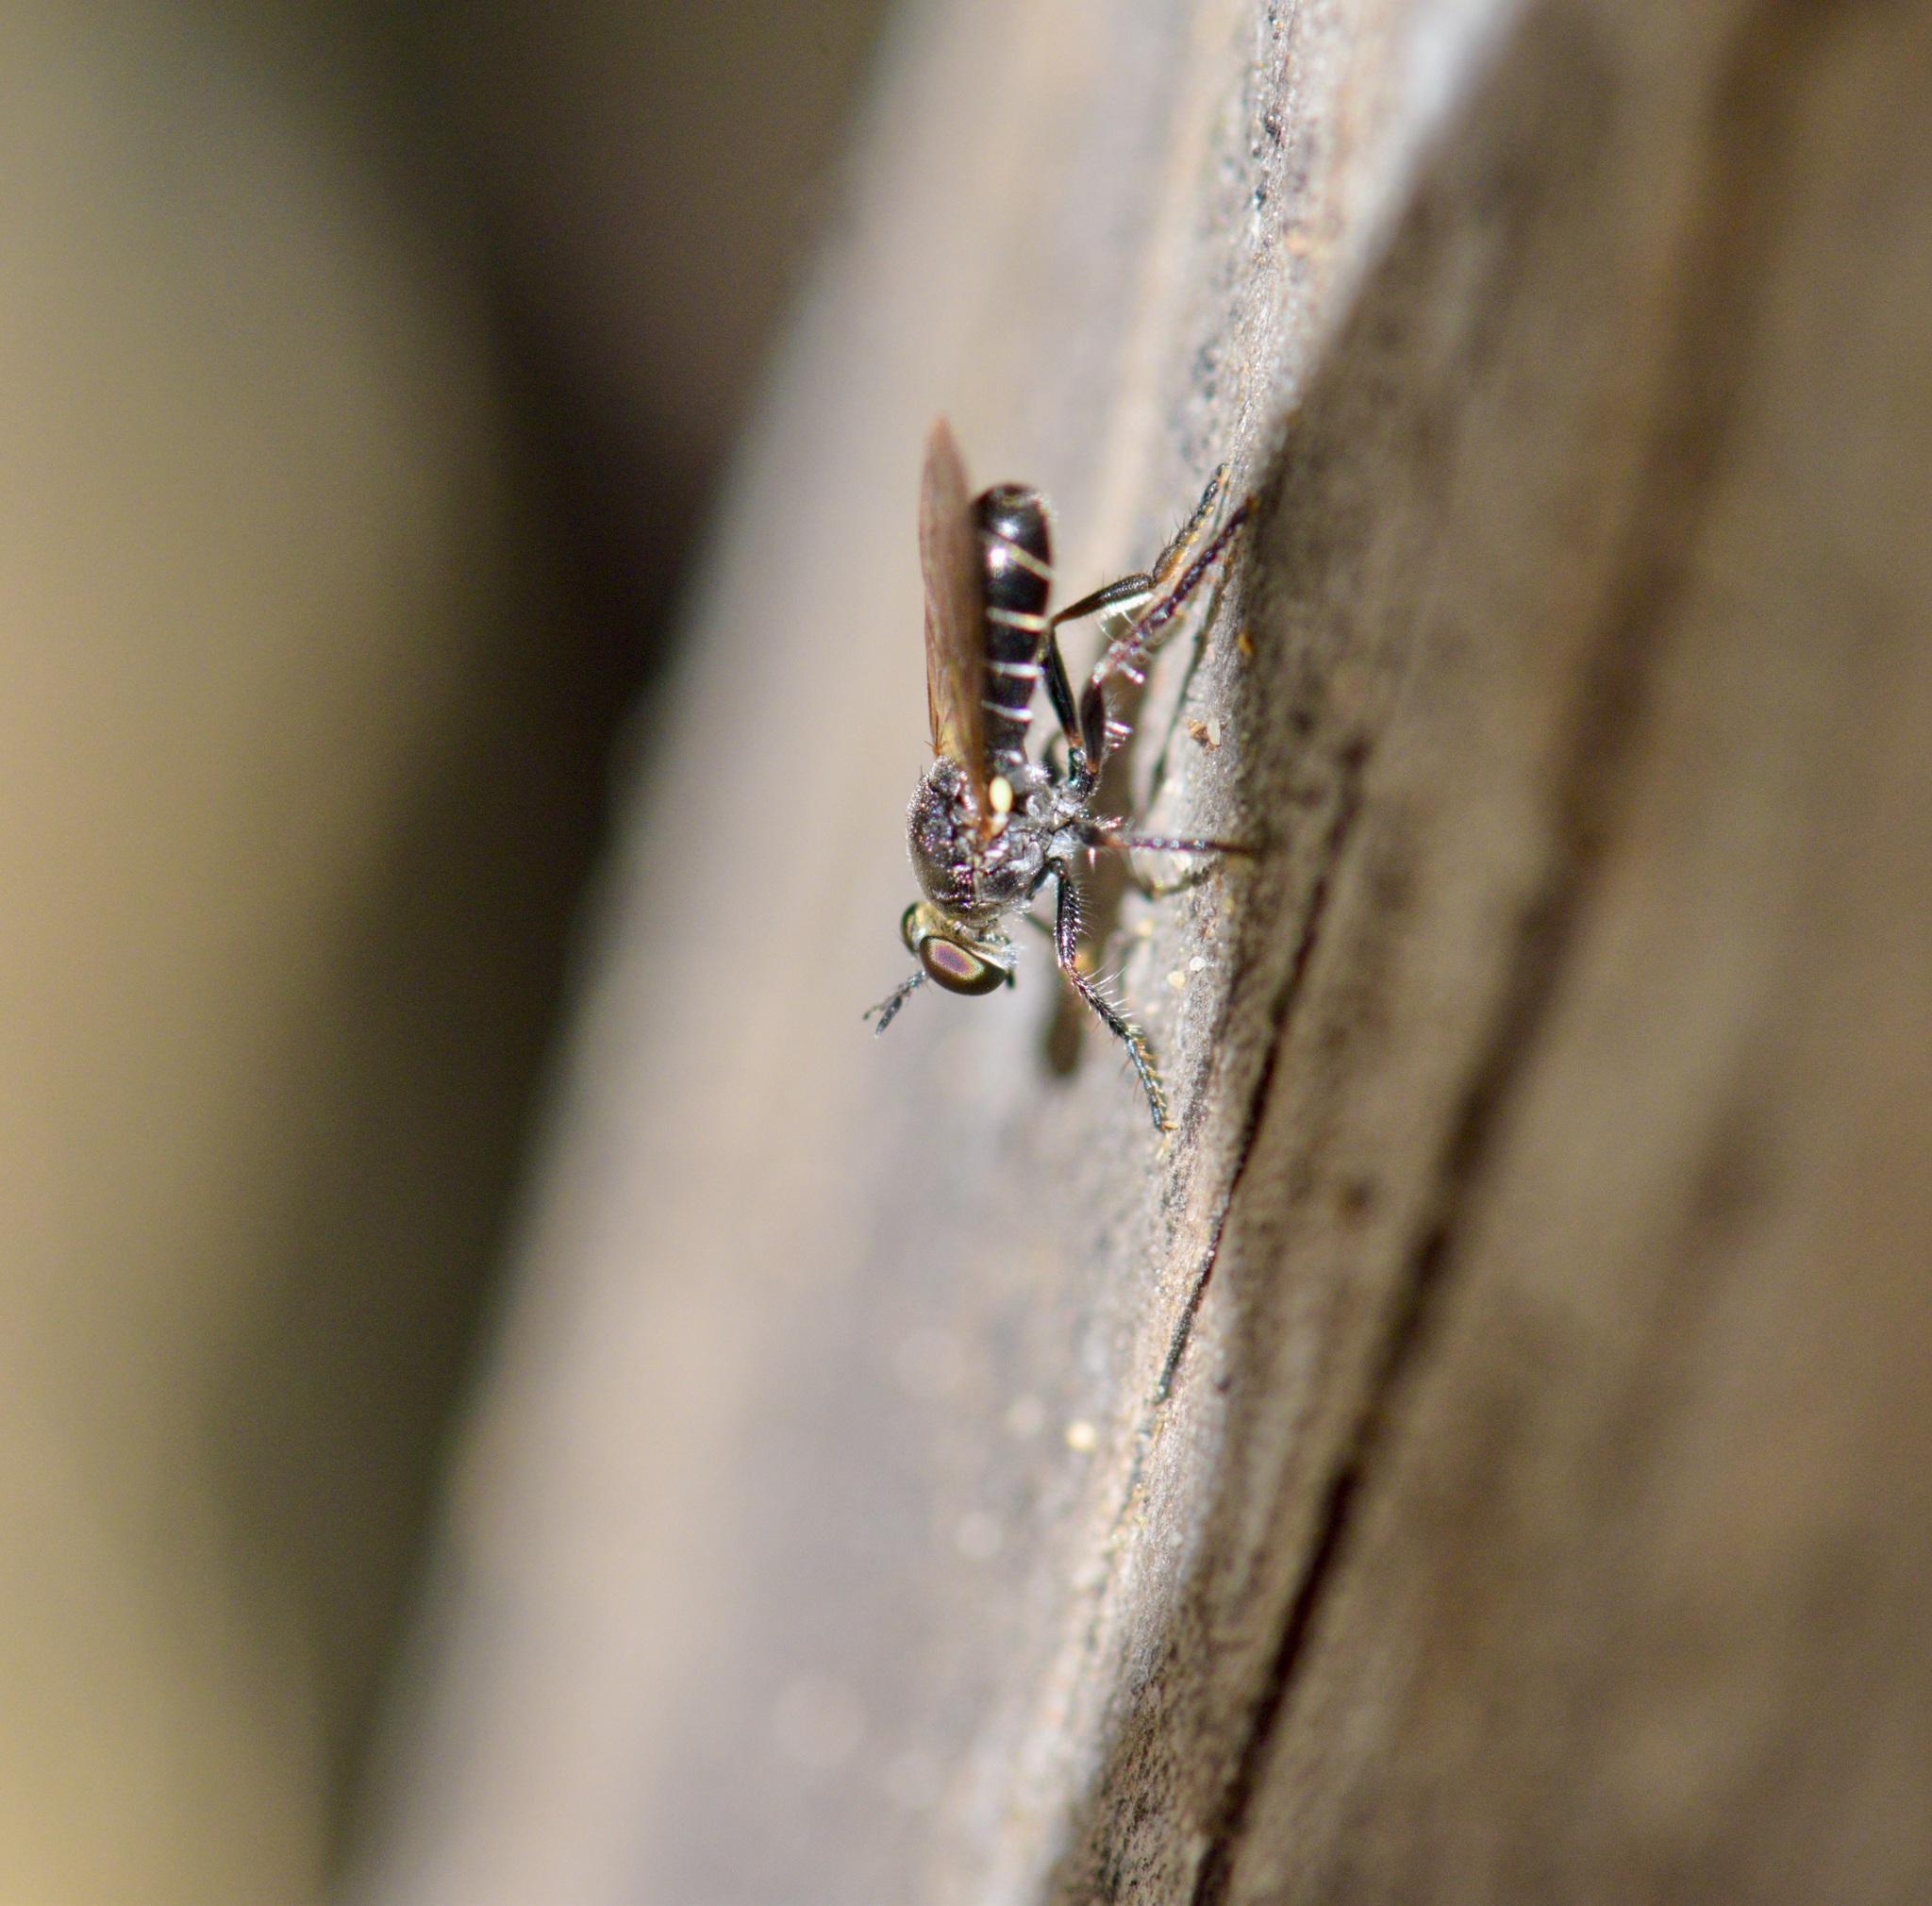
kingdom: Animalia
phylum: Arthropoda
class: Insecta
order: Diptera
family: Asilidae
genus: Atomosia
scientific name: Atomosia puella
